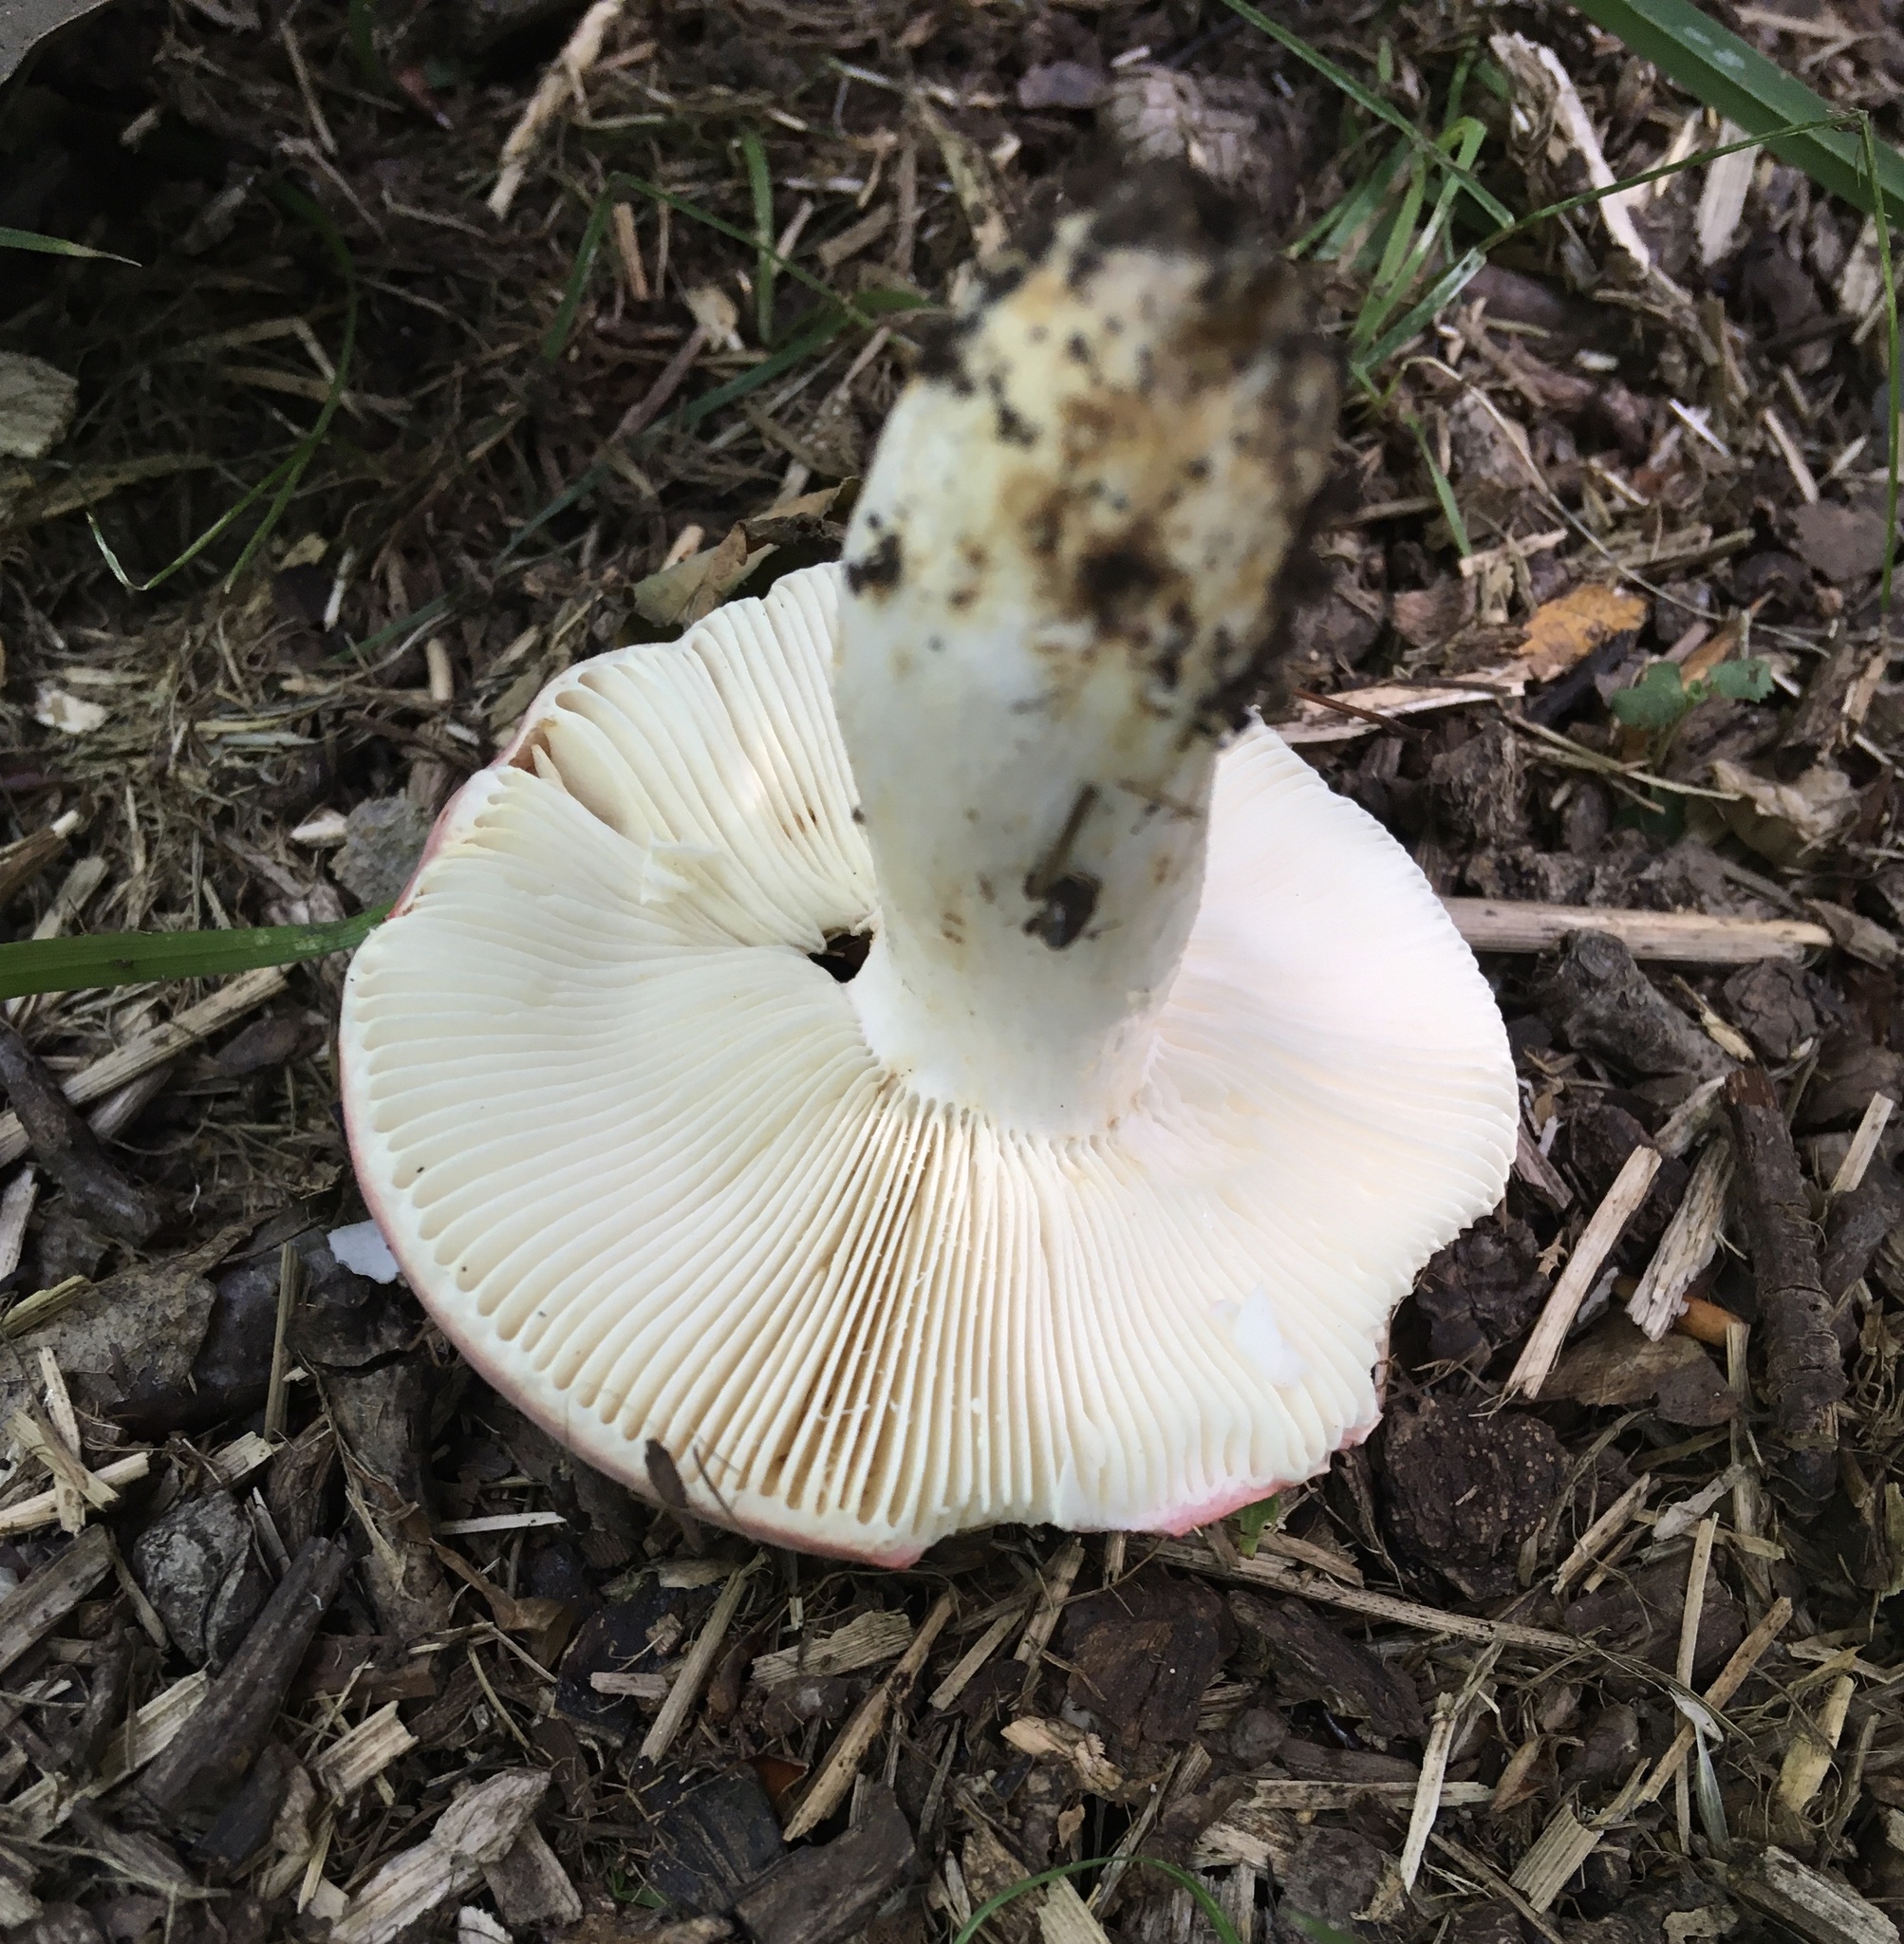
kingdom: Fungi
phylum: Basidiomycota
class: Agaricomycetes
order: Russulales
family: Russulaceae
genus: Russula
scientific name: Russula flavisiccans
